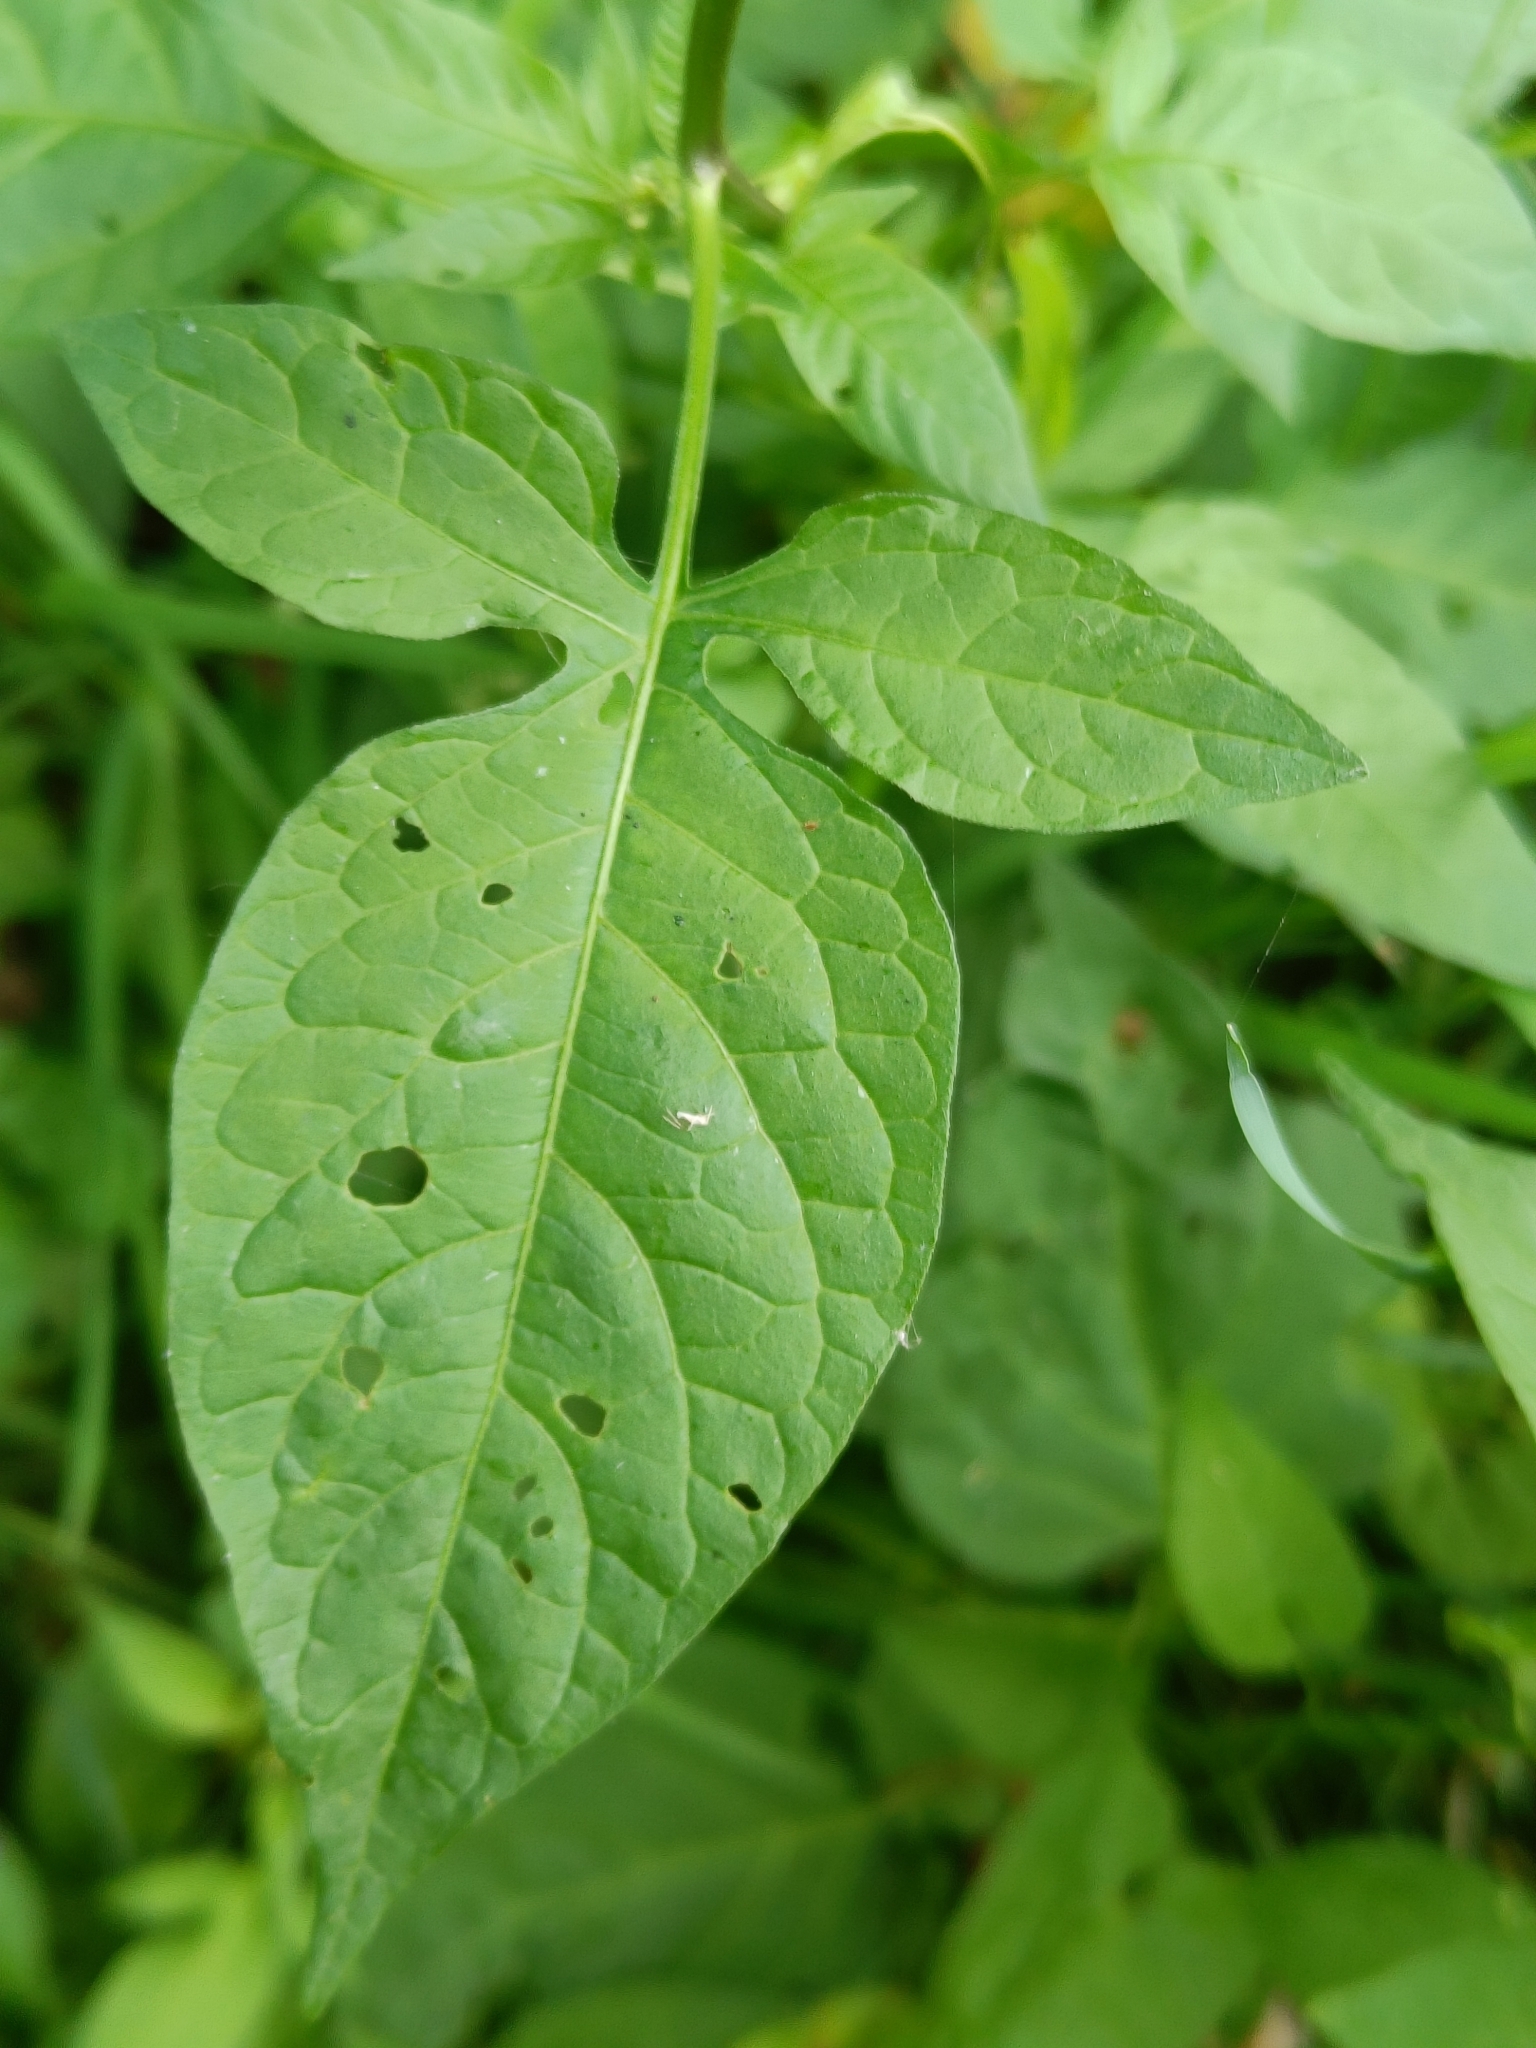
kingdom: Plantae
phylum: Tracheophyta
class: Magnoliopsida
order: Solanales
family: Solanaceae
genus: Solanum
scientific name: Solanum dulcamara
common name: Climbing nightshade
